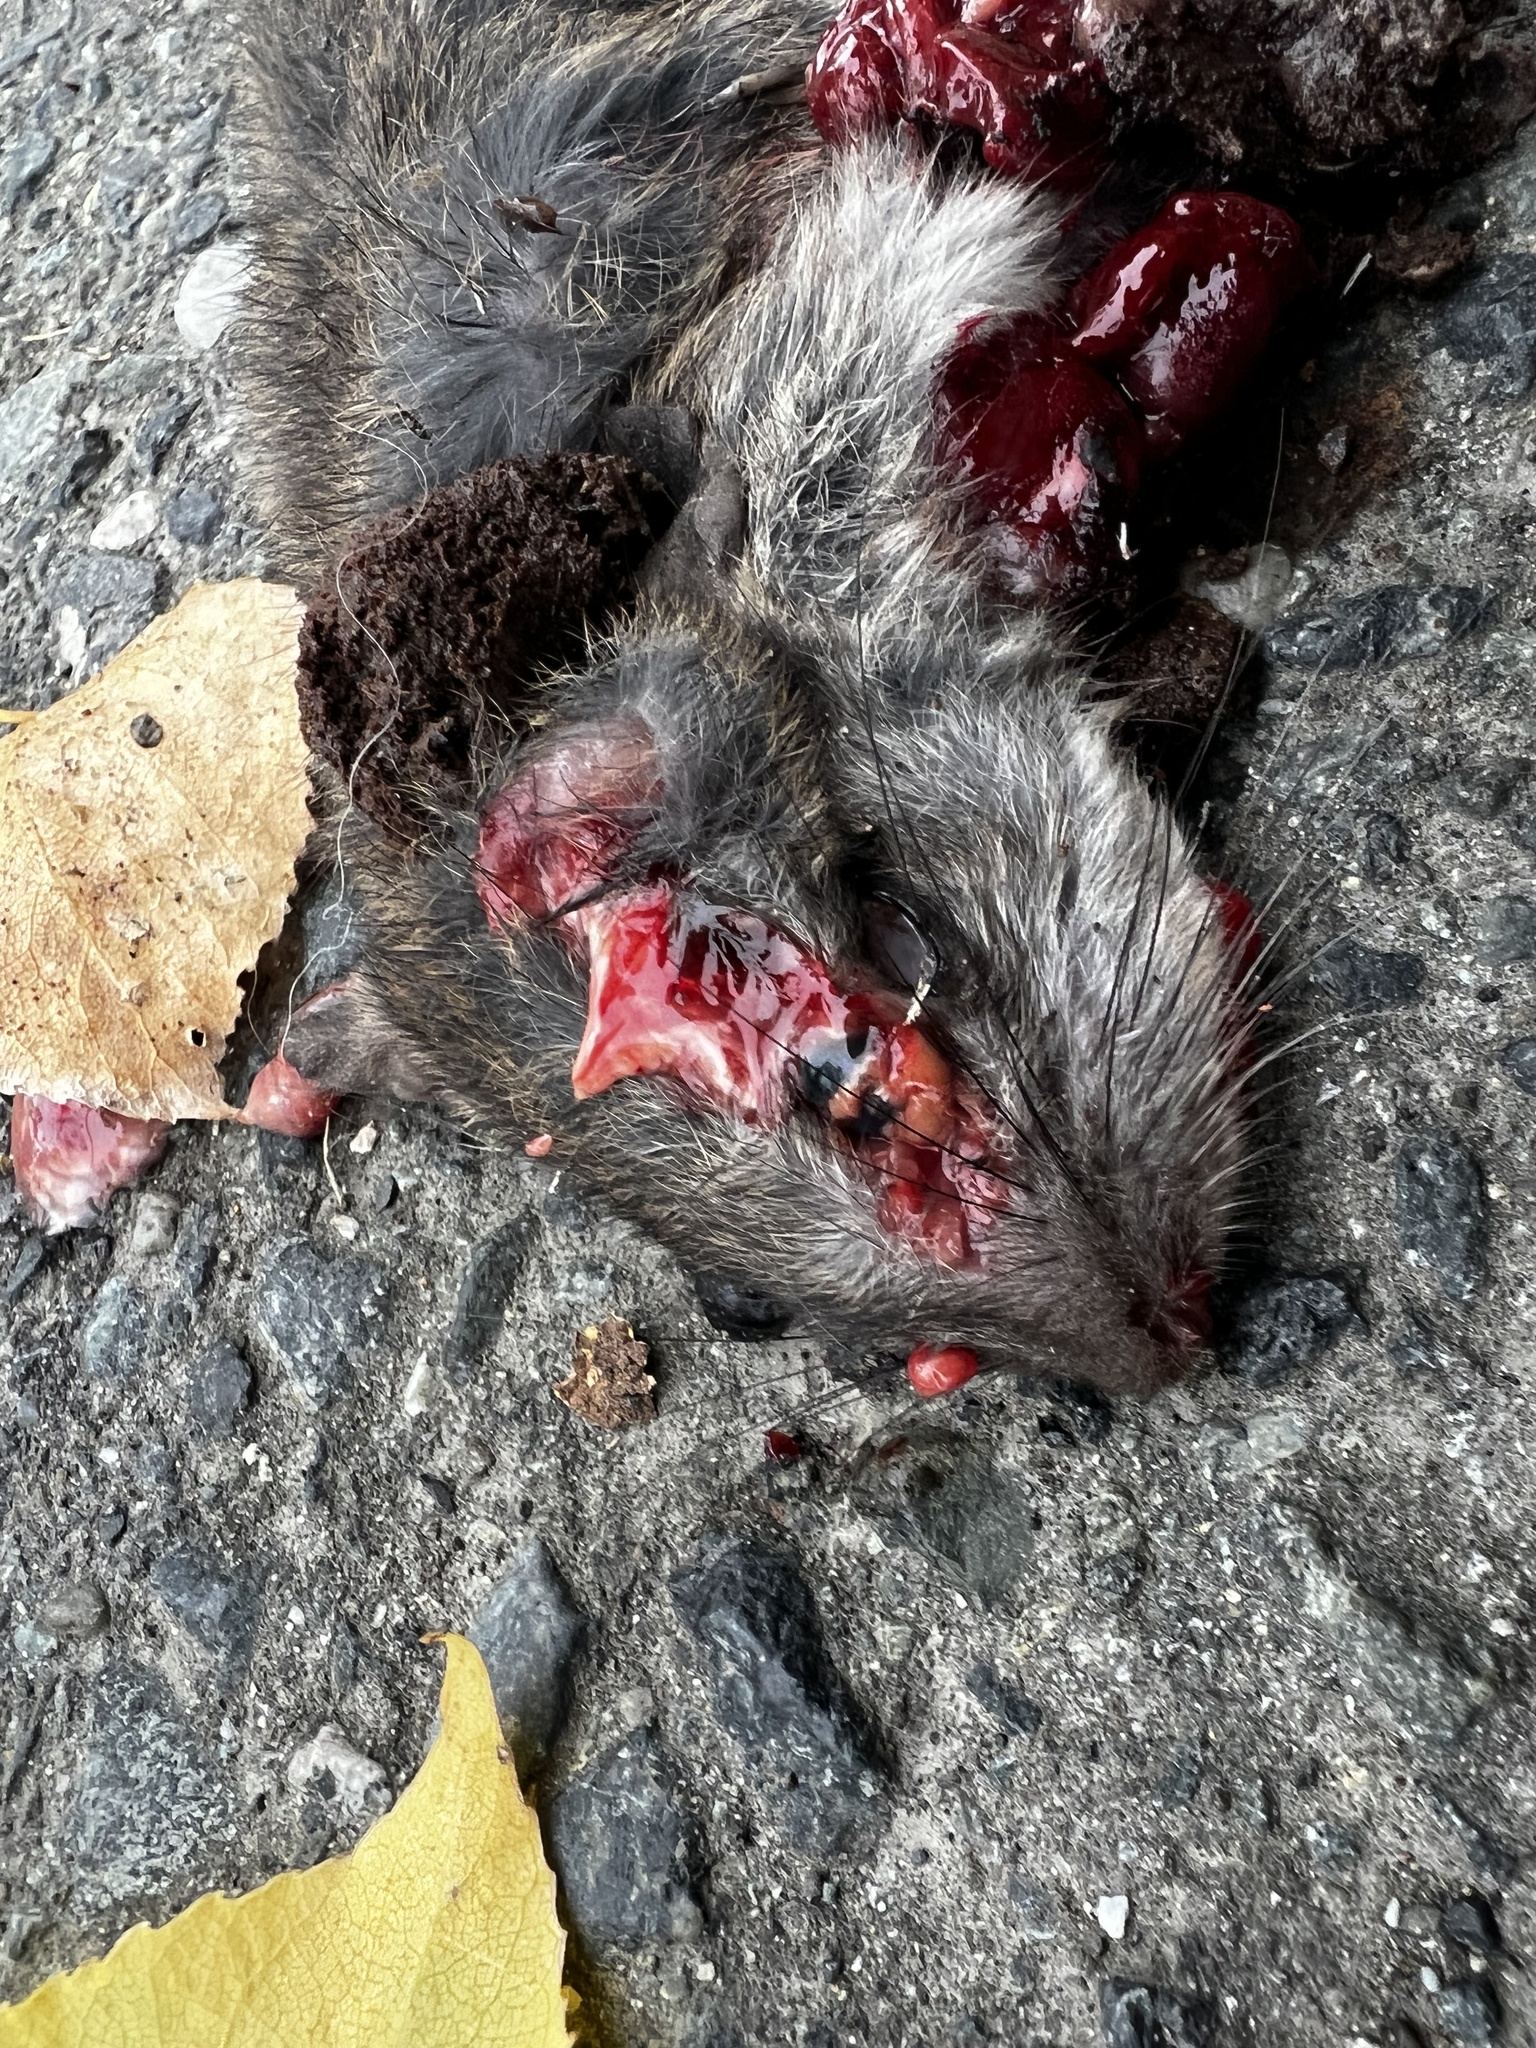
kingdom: Animalia
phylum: Chordata
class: Mammalia
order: Rodentia
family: Muridae
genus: Rattus
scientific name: Rattus rattus
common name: Black rat
